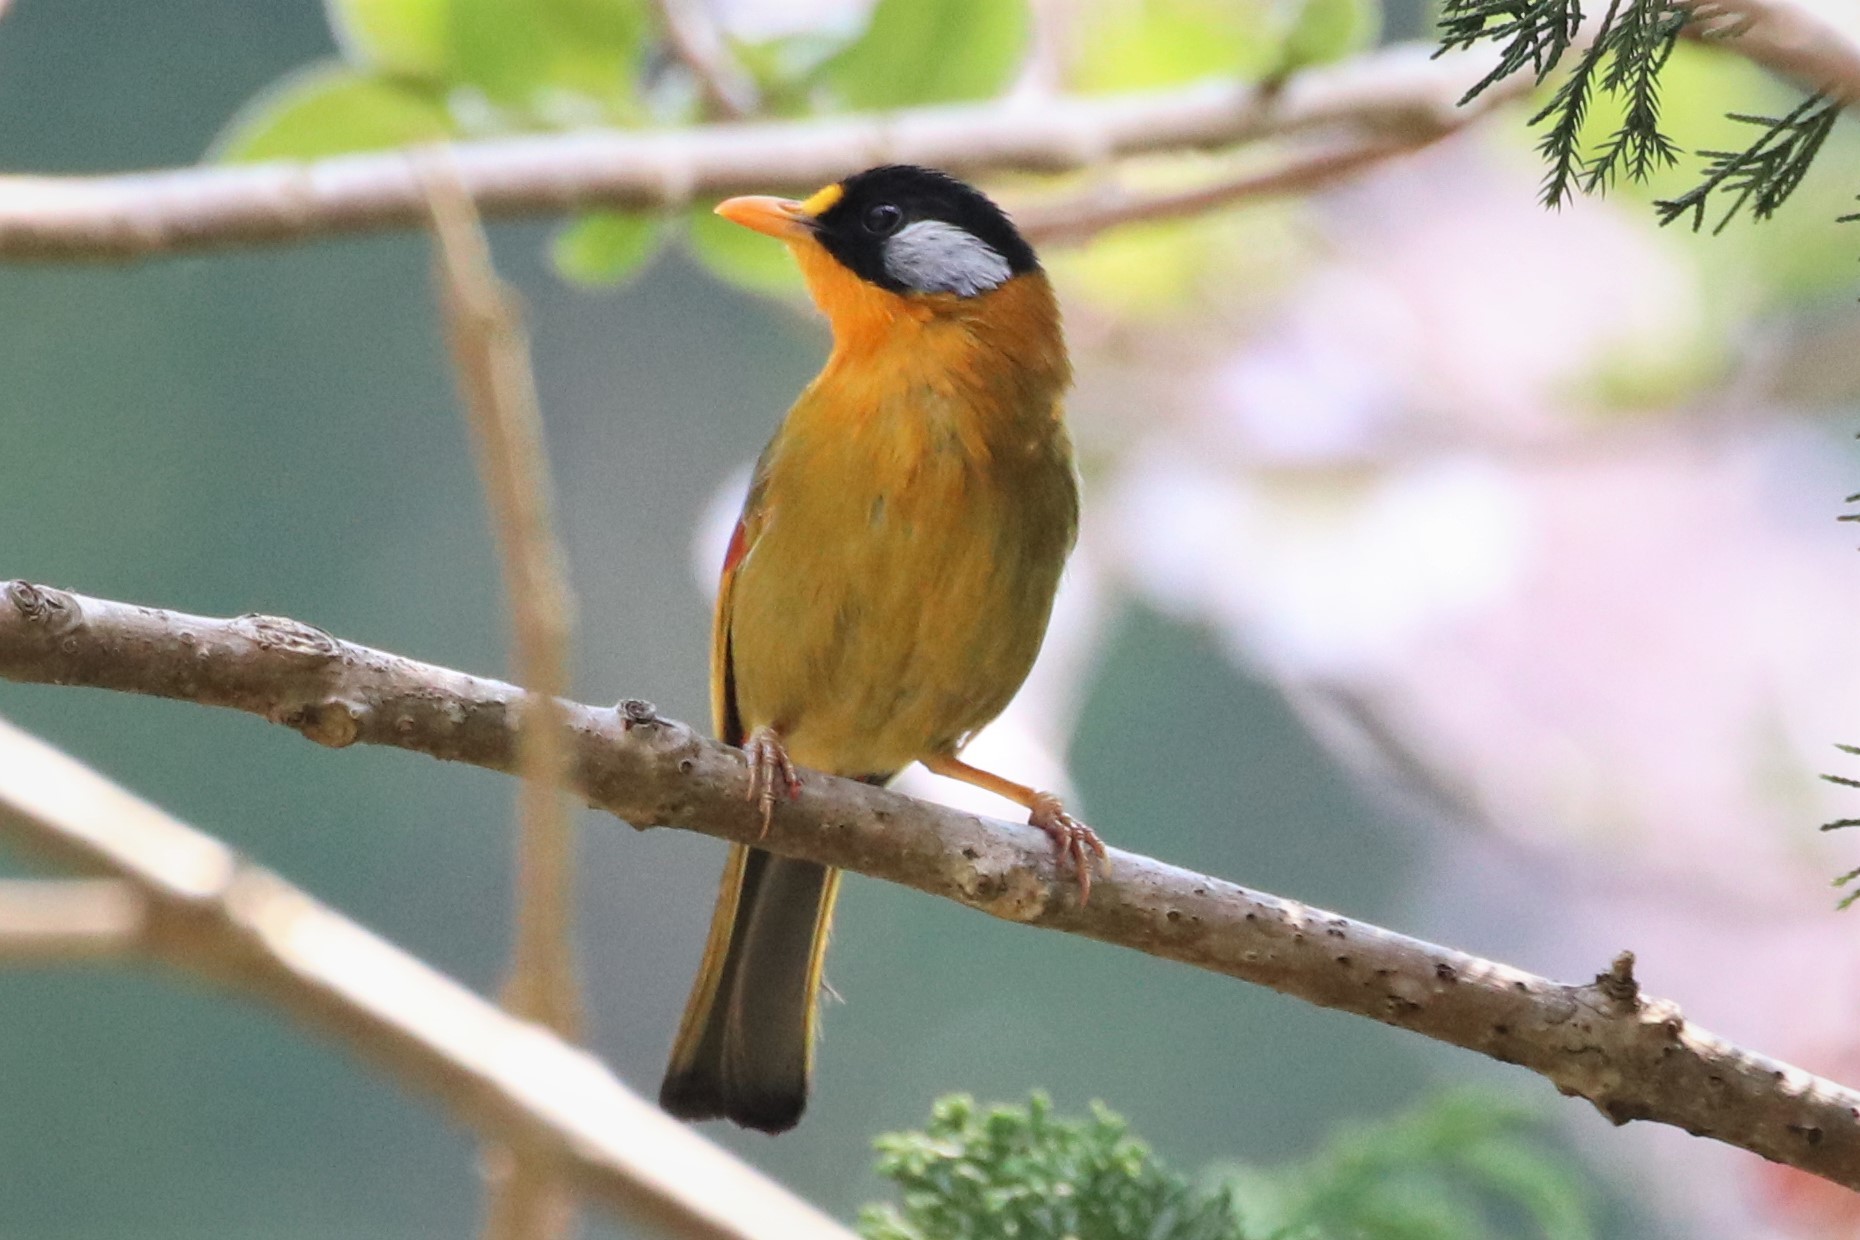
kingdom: Animalia
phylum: Chordata
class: Aves
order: Passeriformes
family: Leiothrichidae
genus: Leiothrix
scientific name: Leiothrix argentauris
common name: Silver-eared mesia
